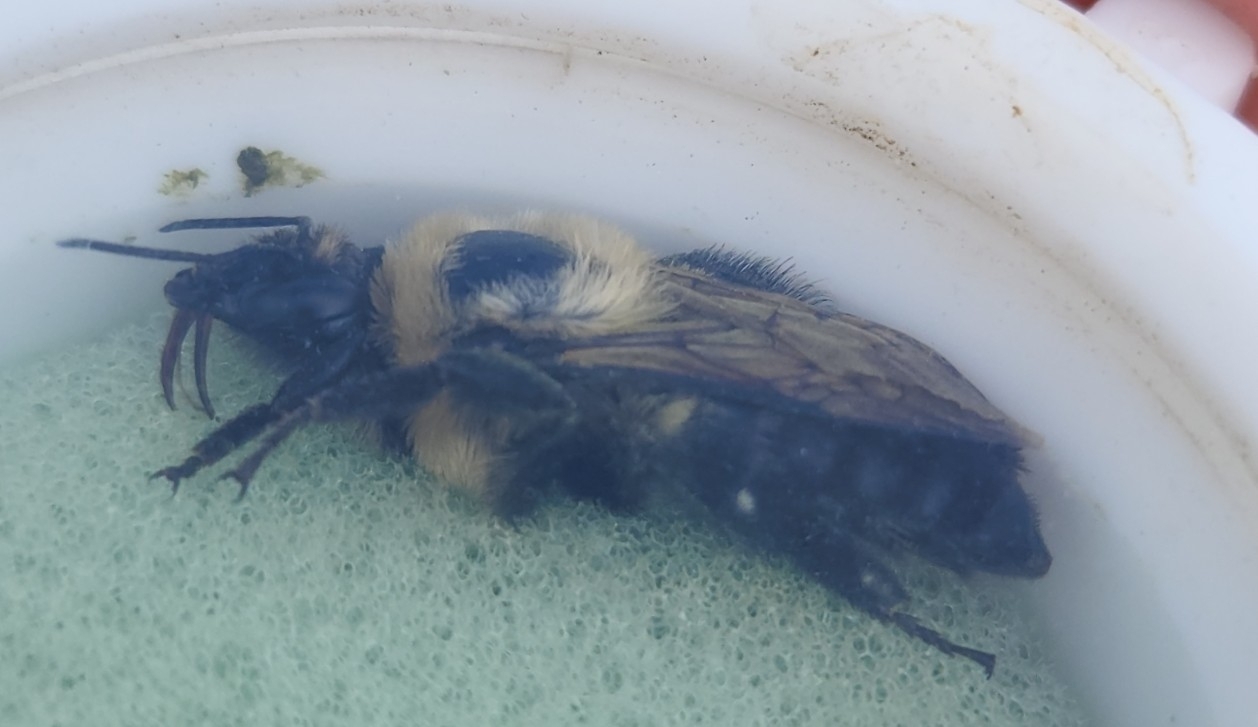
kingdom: Animalia
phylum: Arthropoda
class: Insecta
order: Hymenoptera
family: Apidae
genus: Bombus
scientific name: Bombus griseocollis
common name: Brown-belted bumble bee
